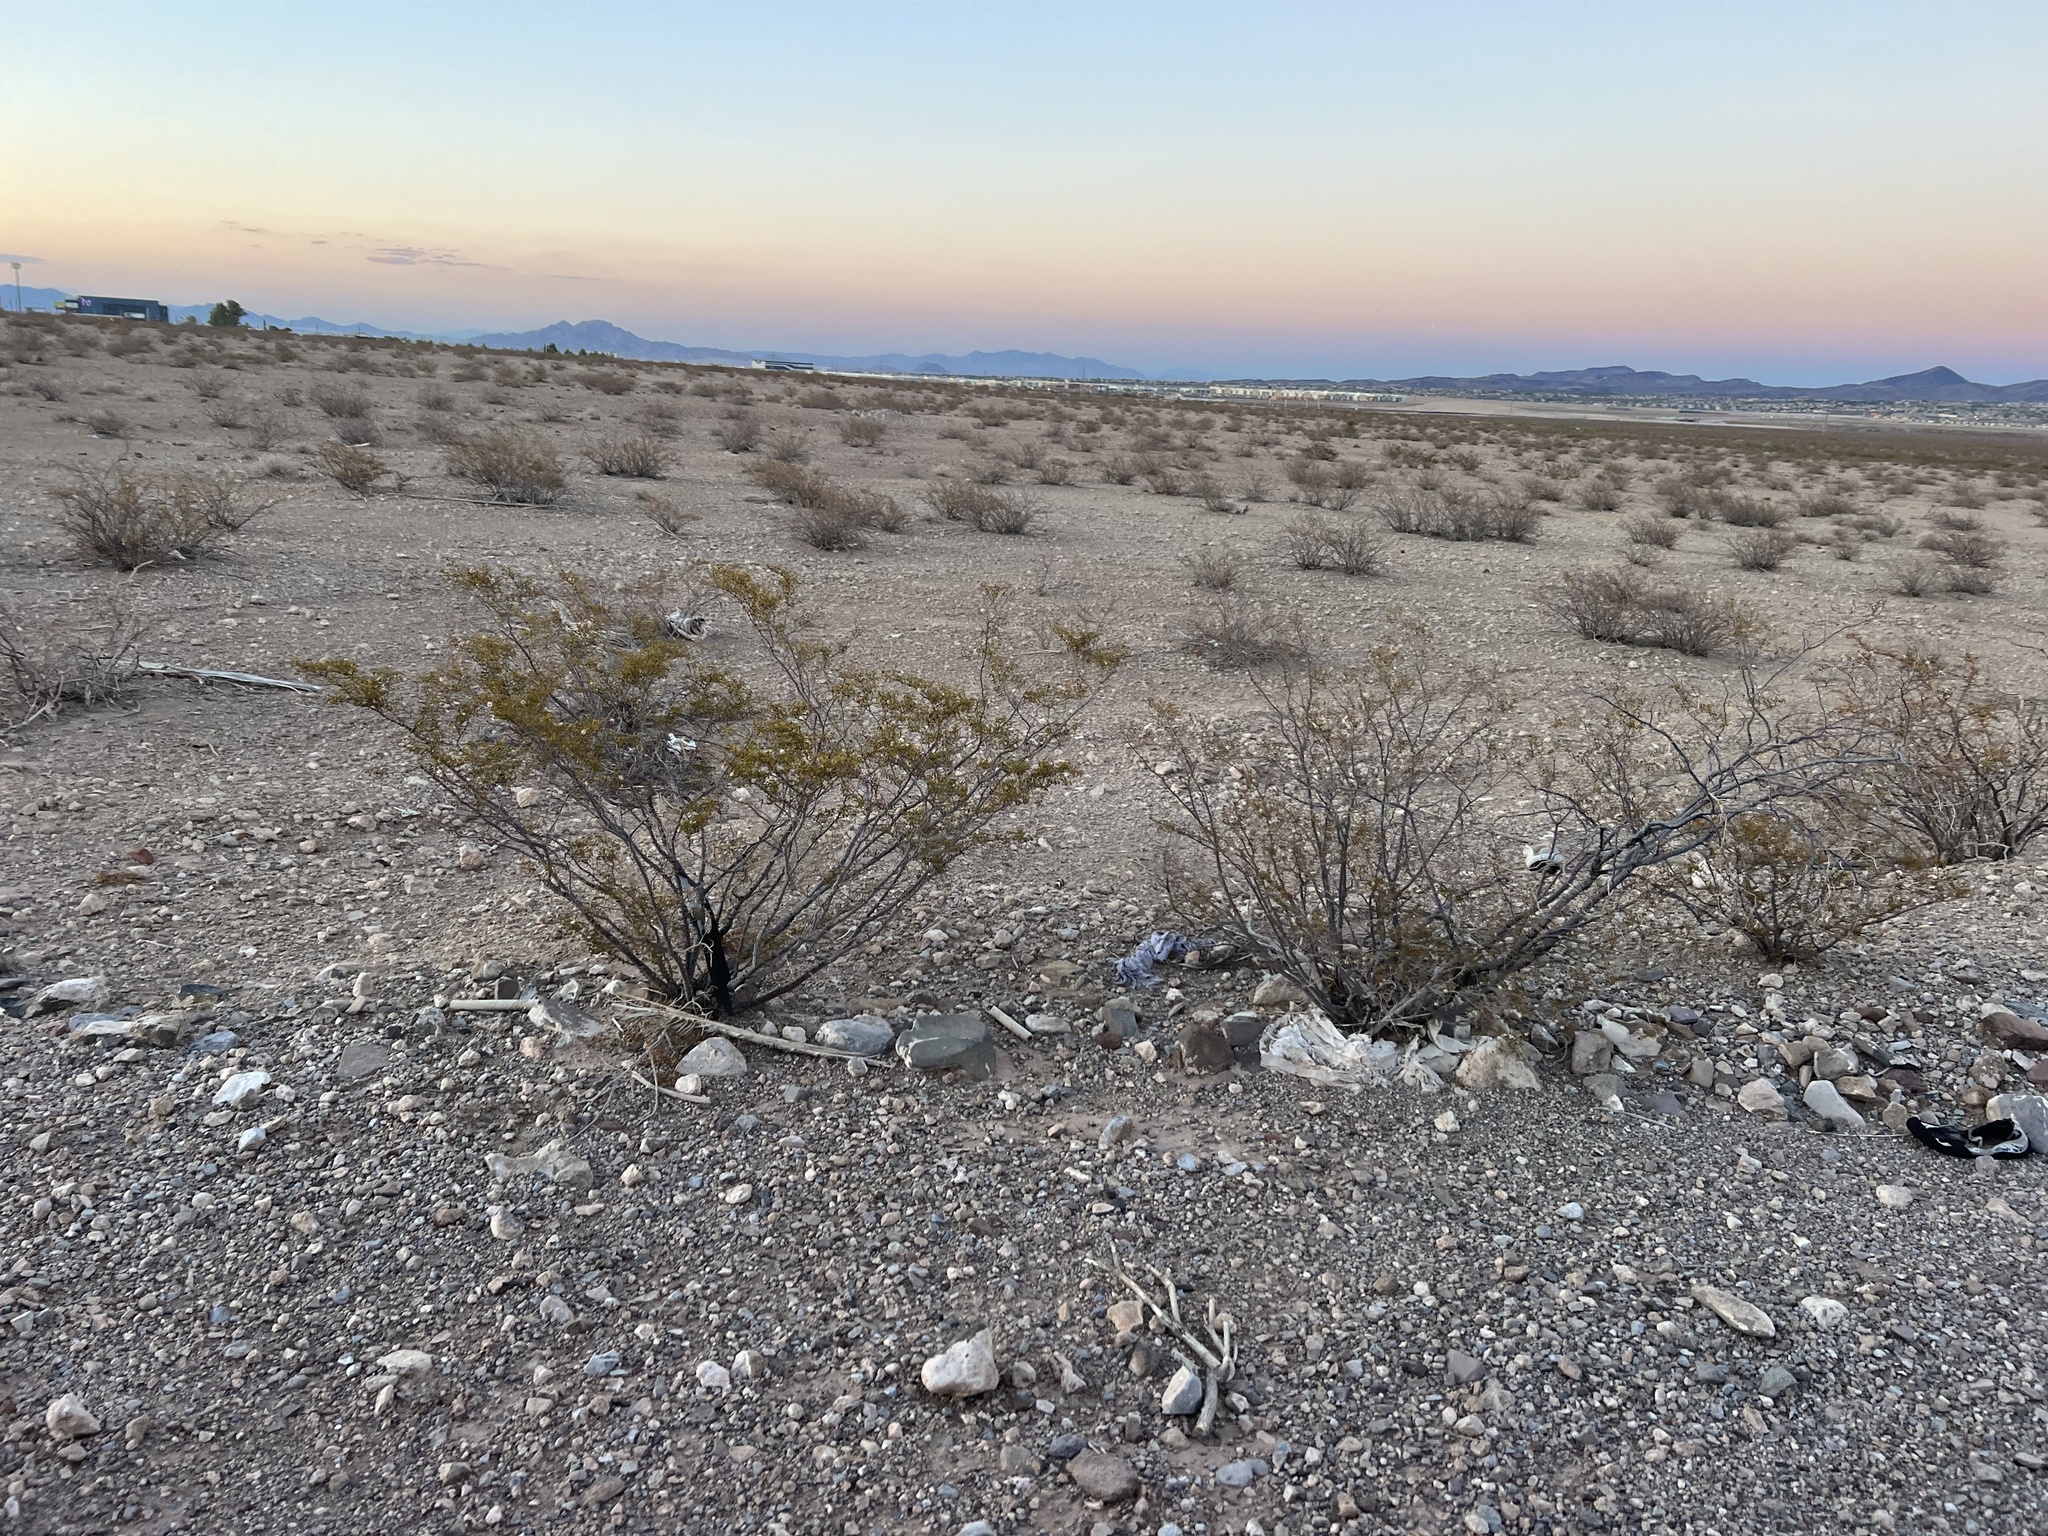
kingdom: Plantae
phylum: Tracheophyta
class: Magnoliopsida
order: Zygophyllales
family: Zygophyllaceae
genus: Larrea
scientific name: Larrea tridentata
